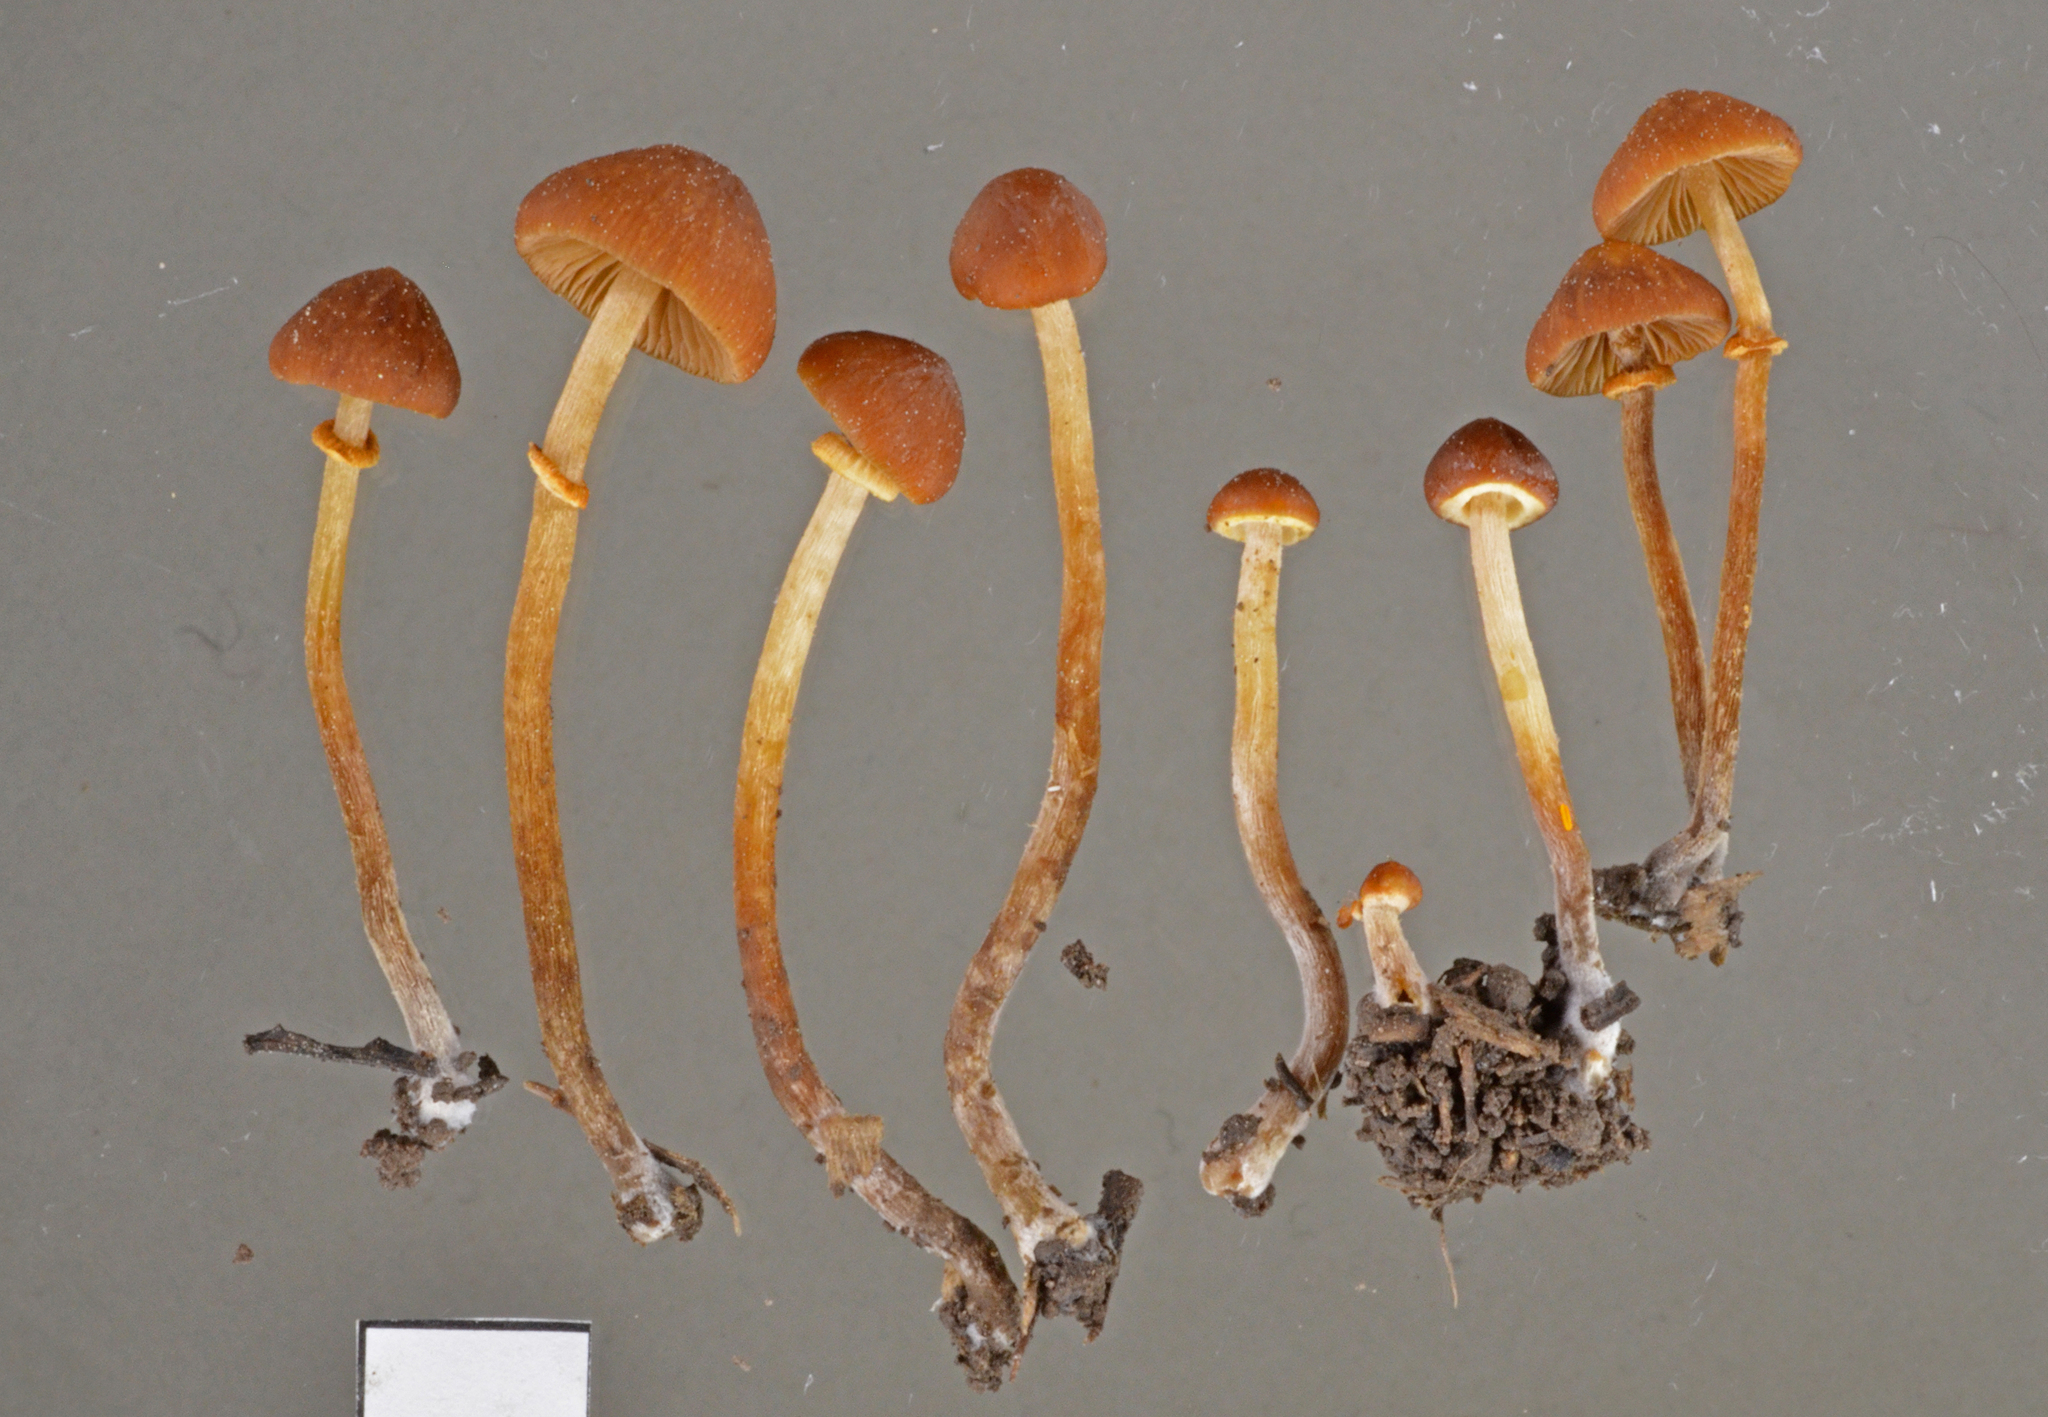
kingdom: Fungi
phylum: Basidiomycota
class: Agaricomycetes
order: Agaricales
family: Bolbitiaceae
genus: Pholiotina
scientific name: Pholiotina gracilenta
